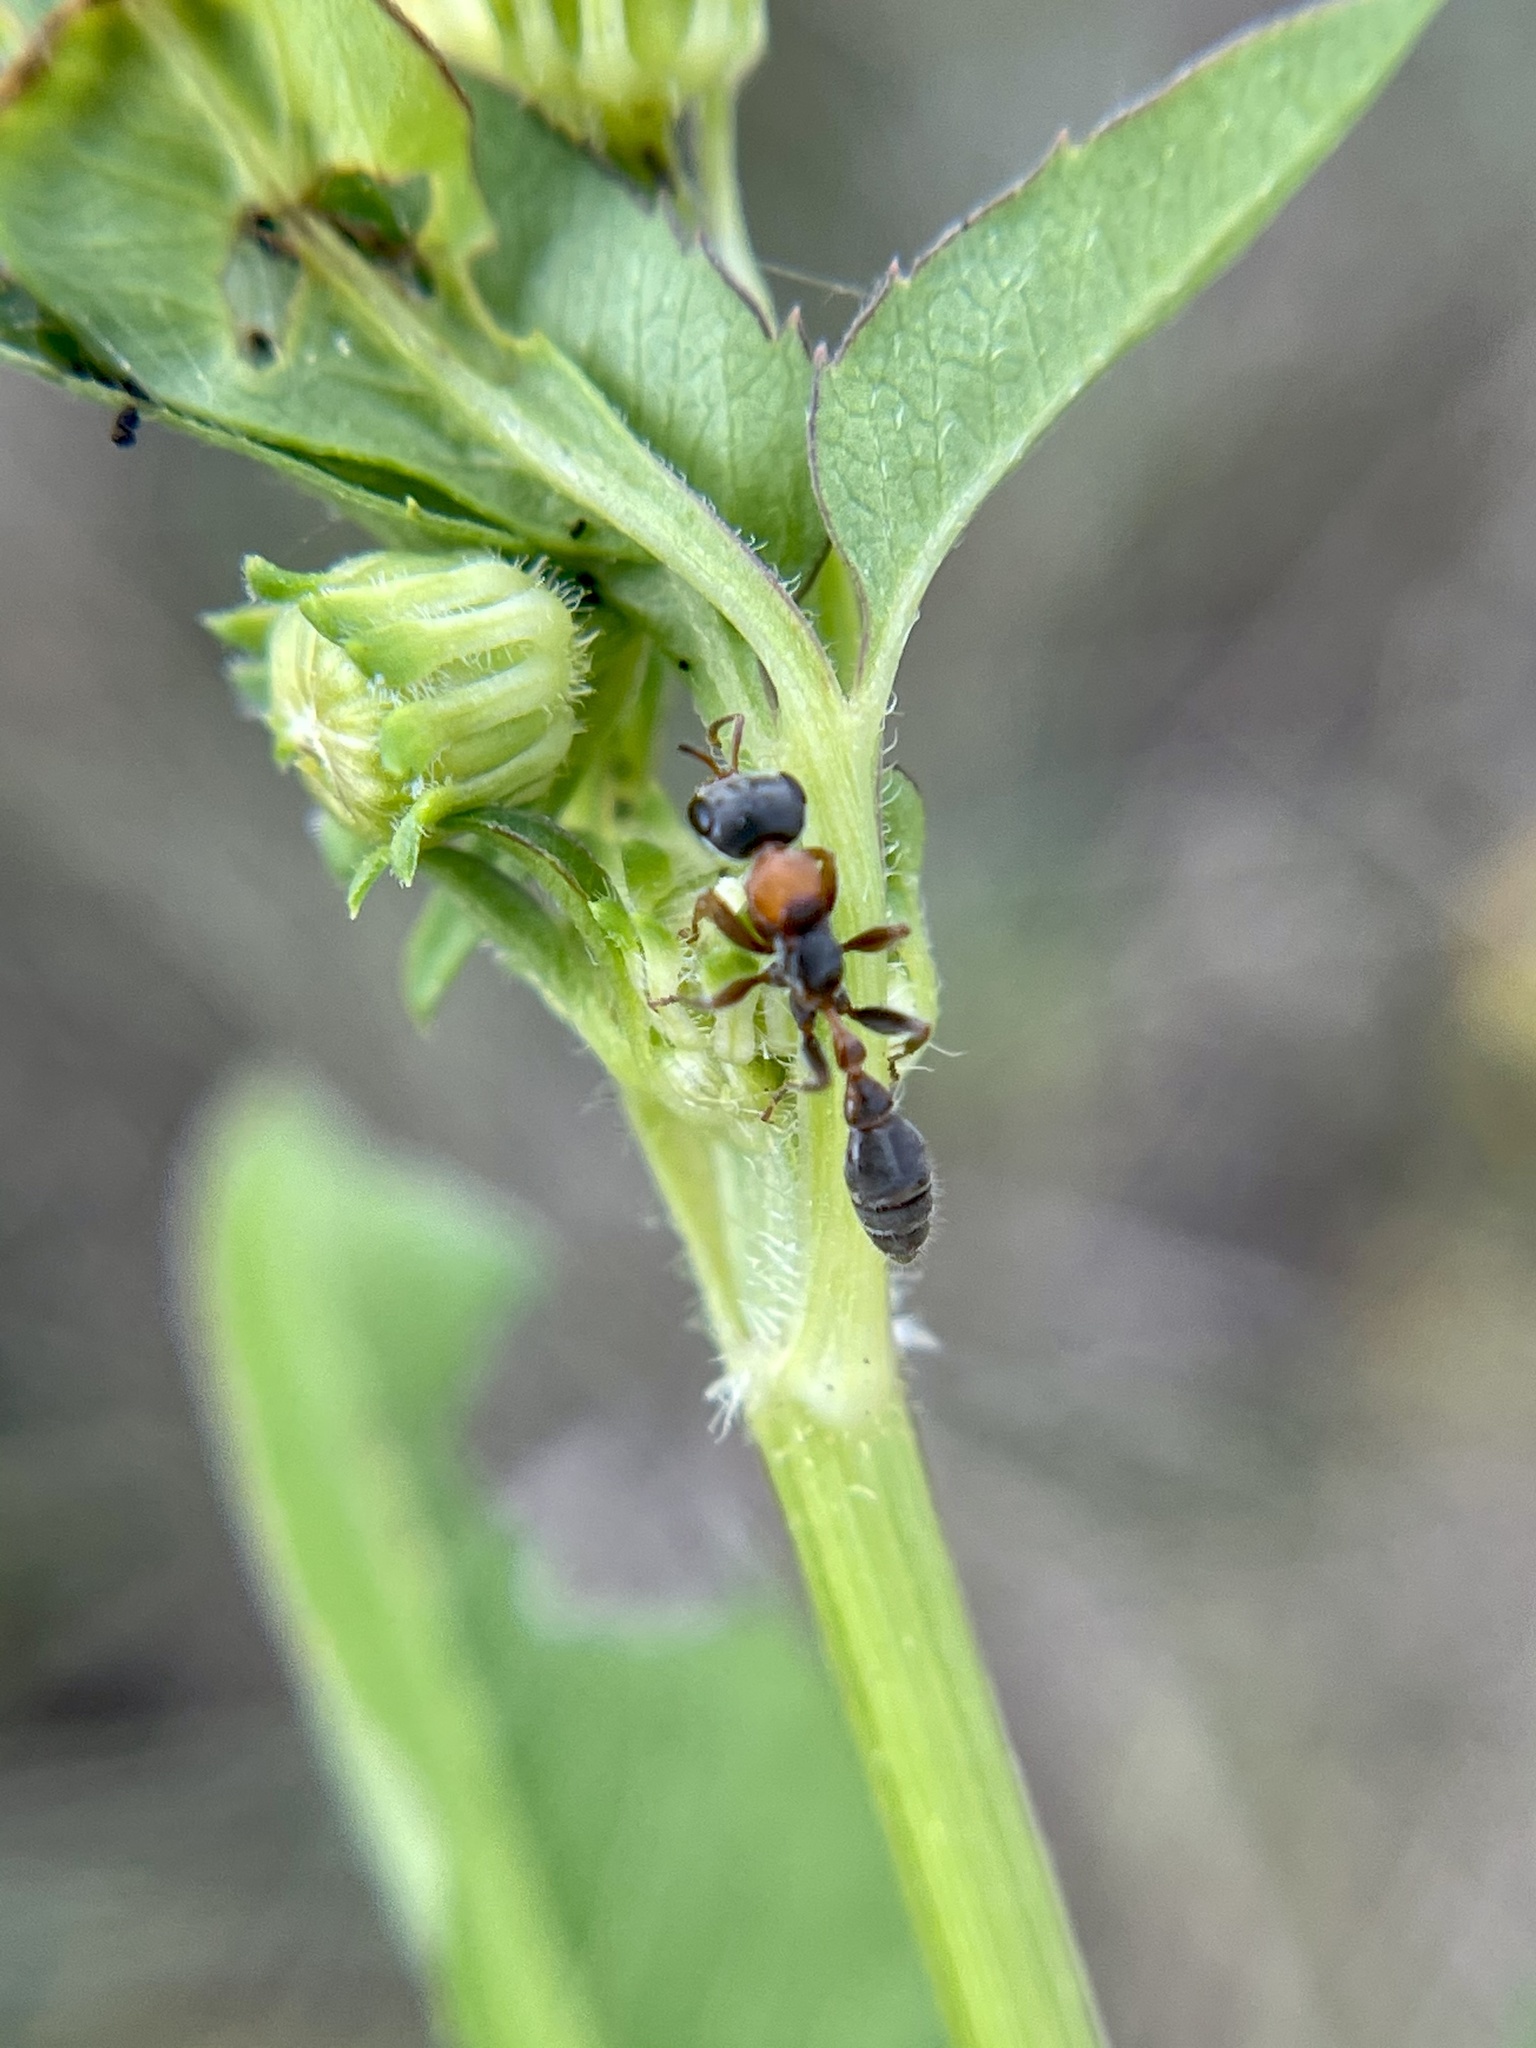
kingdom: Animalia
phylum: Arthropoda
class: Insecta
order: Hymenoptera
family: Formicidae
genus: Pseudomyrmex
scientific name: Pseudomyrmex gracilis
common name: Graceful twig ant
